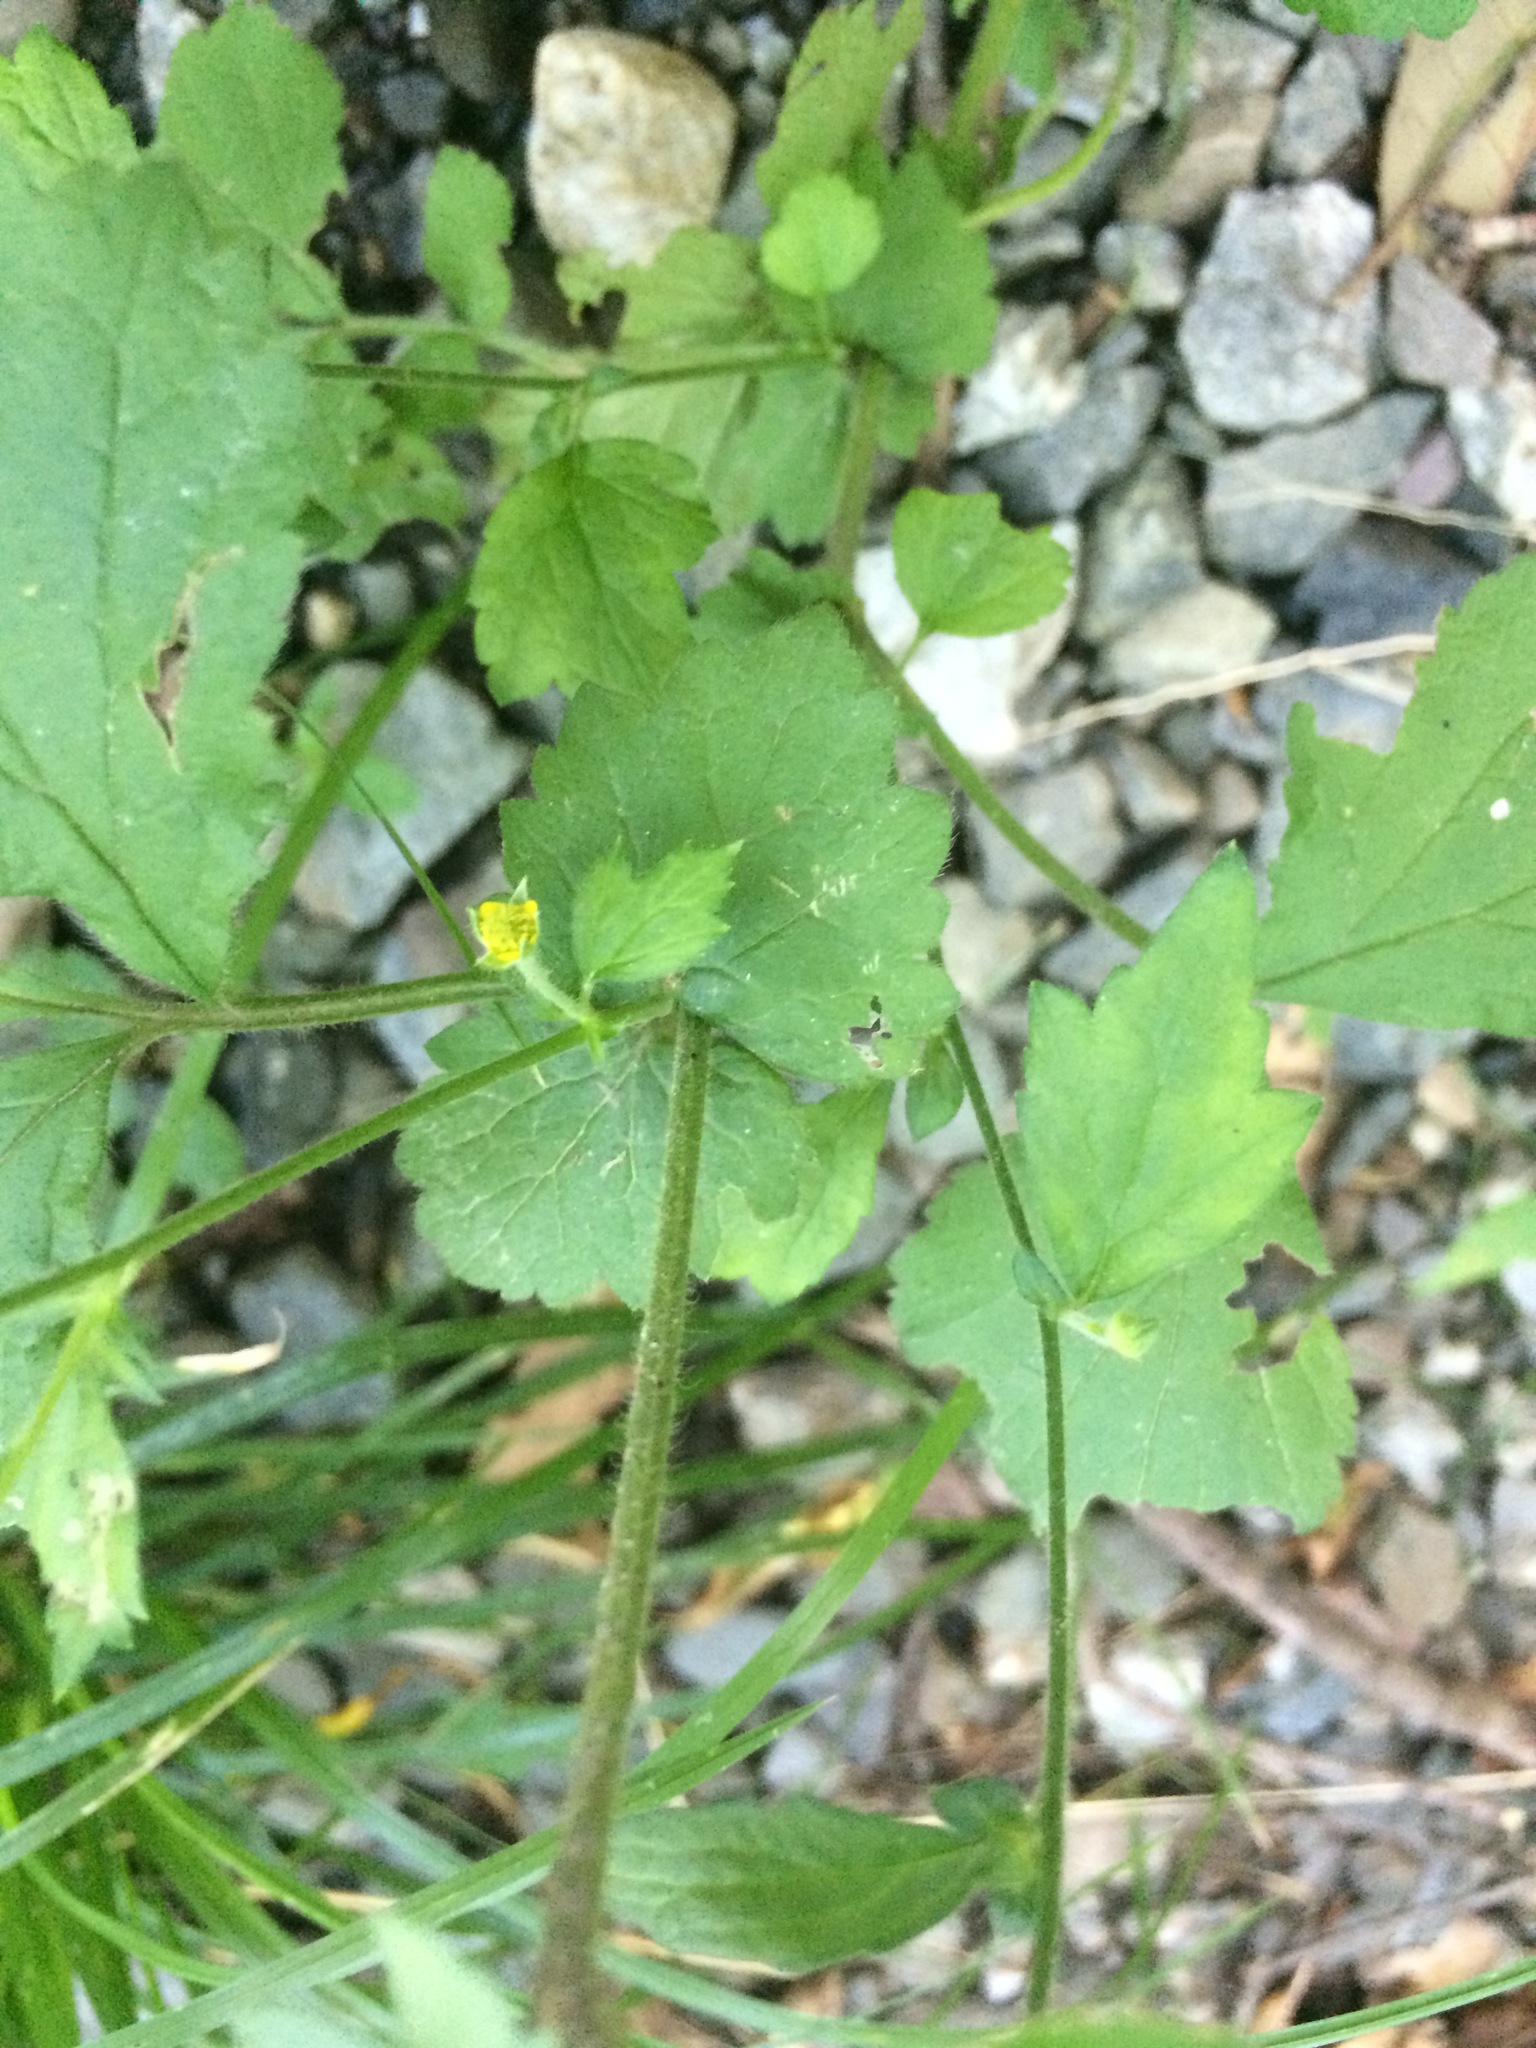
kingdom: Plantae
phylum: Tracheophyta
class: Magnoliopsida
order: Rosales
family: Rosaceae
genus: Geum
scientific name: Geum urbanum
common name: Wood avens
